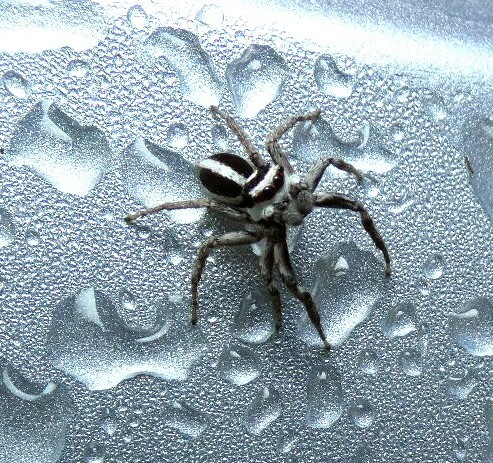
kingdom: Animalia
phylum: Arthropoda
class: Arachnida
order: Araneae
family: Salticidae
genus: Leptofreya
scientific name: Leptofreya ambigua
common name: Jumping spider
